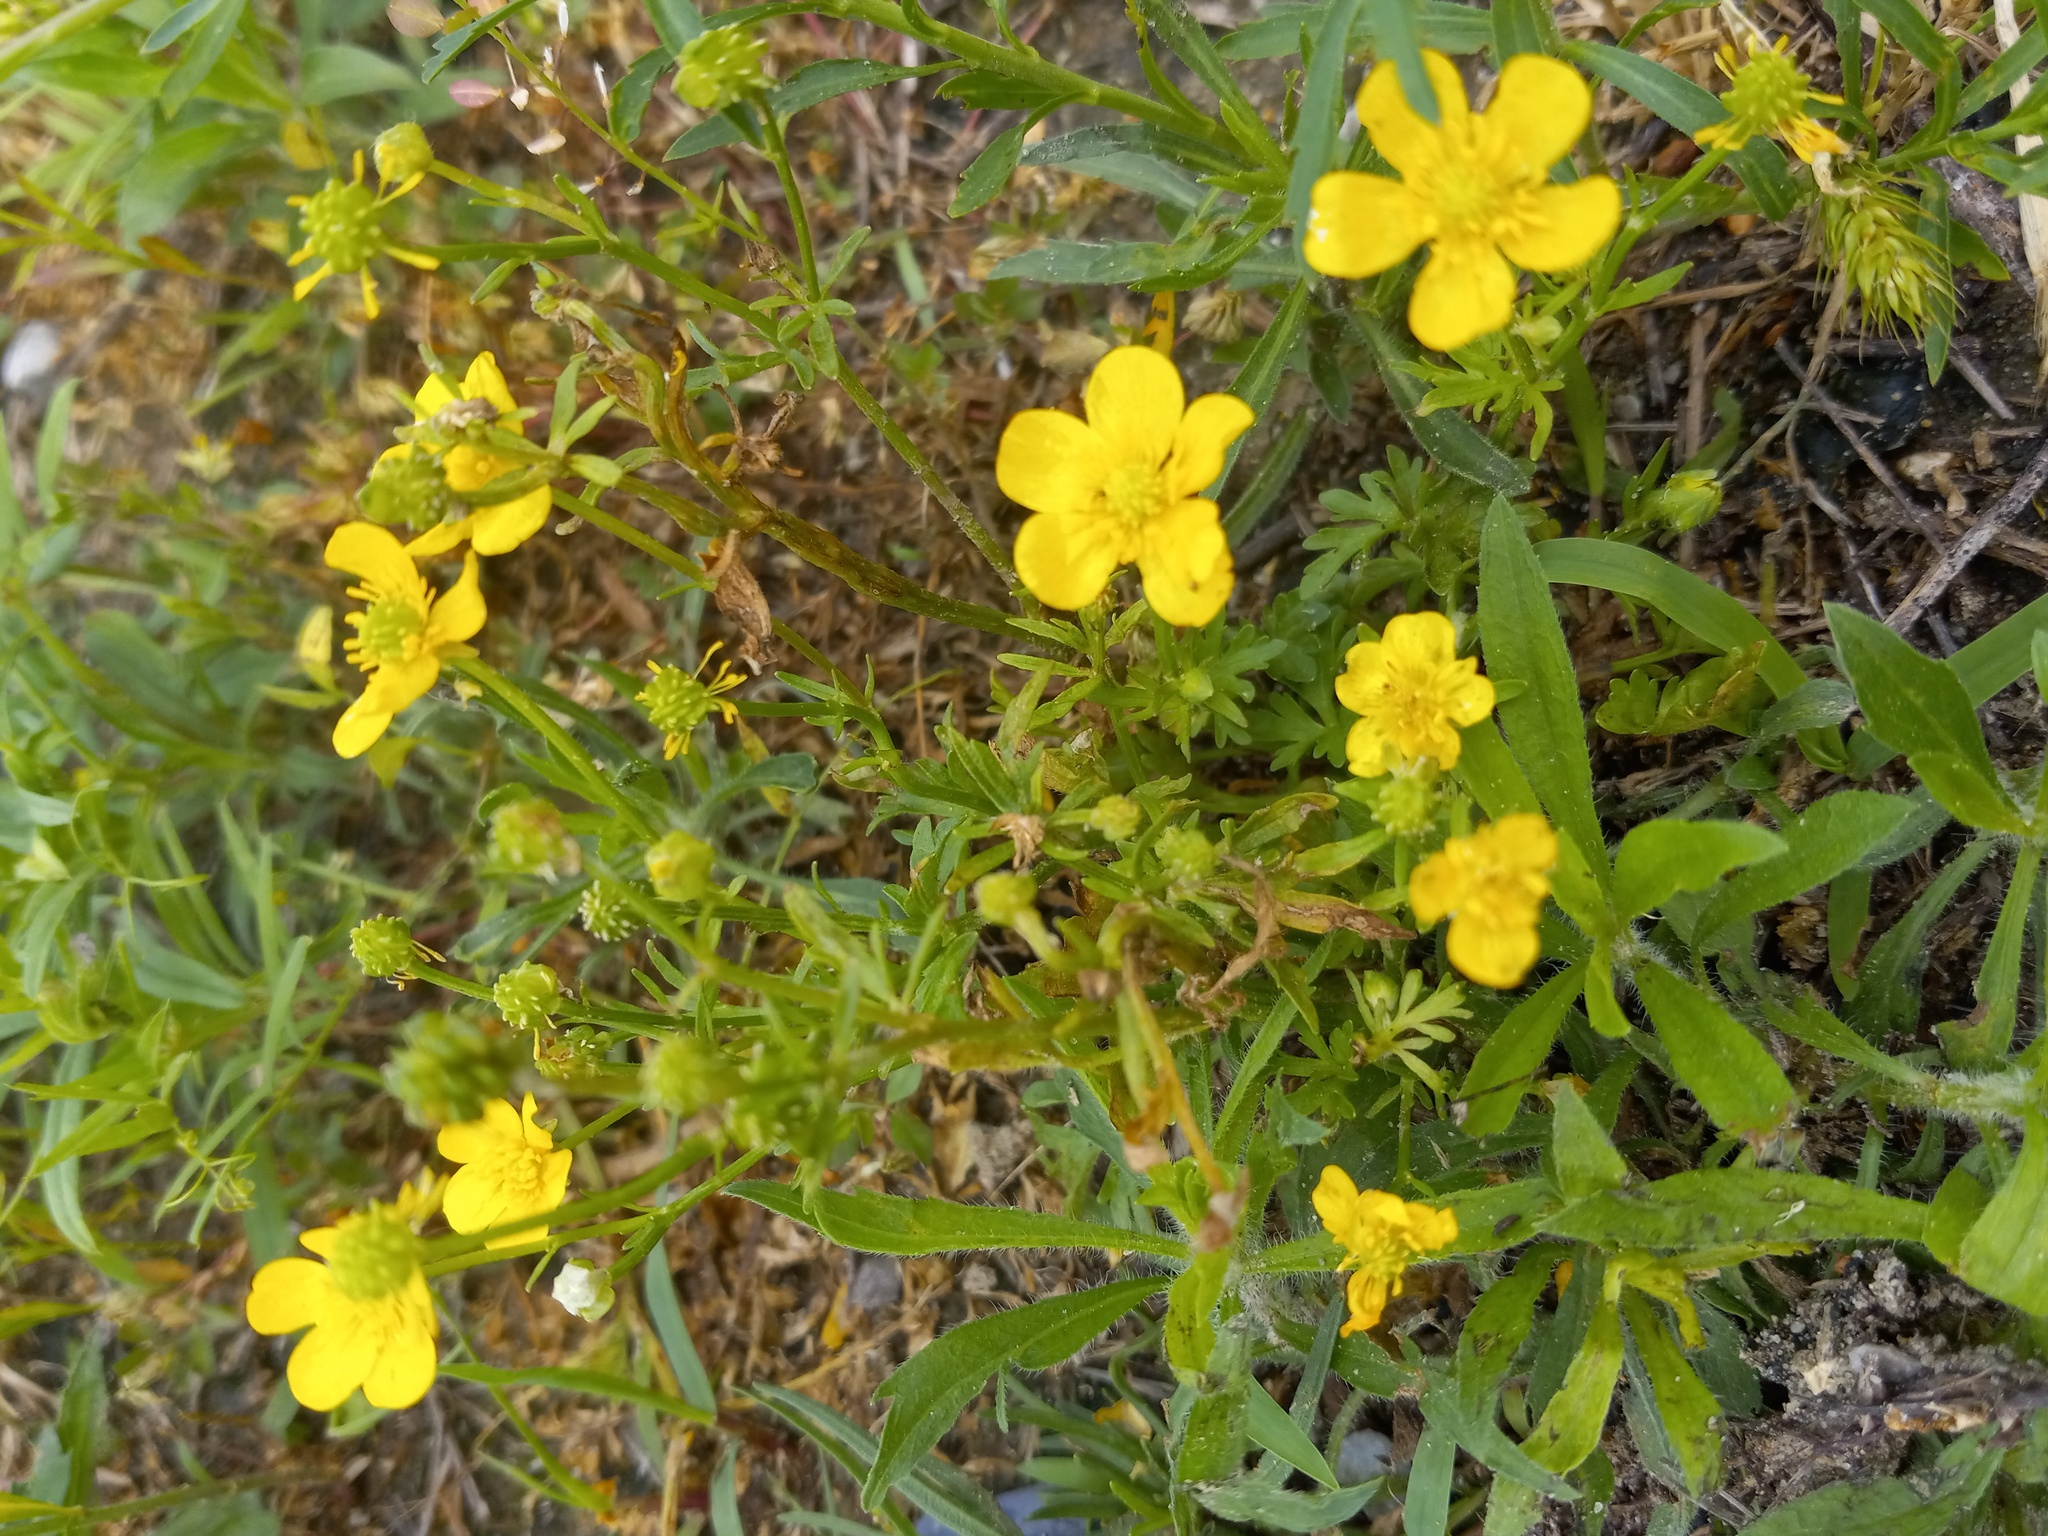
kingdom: Plantae
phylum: Tracheophyta
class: Magnoliopsida
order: Ranunculales
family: Ranunculaceae
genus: Ranunculus
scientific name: Ranunculus sardous
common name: Hairy buttercup
